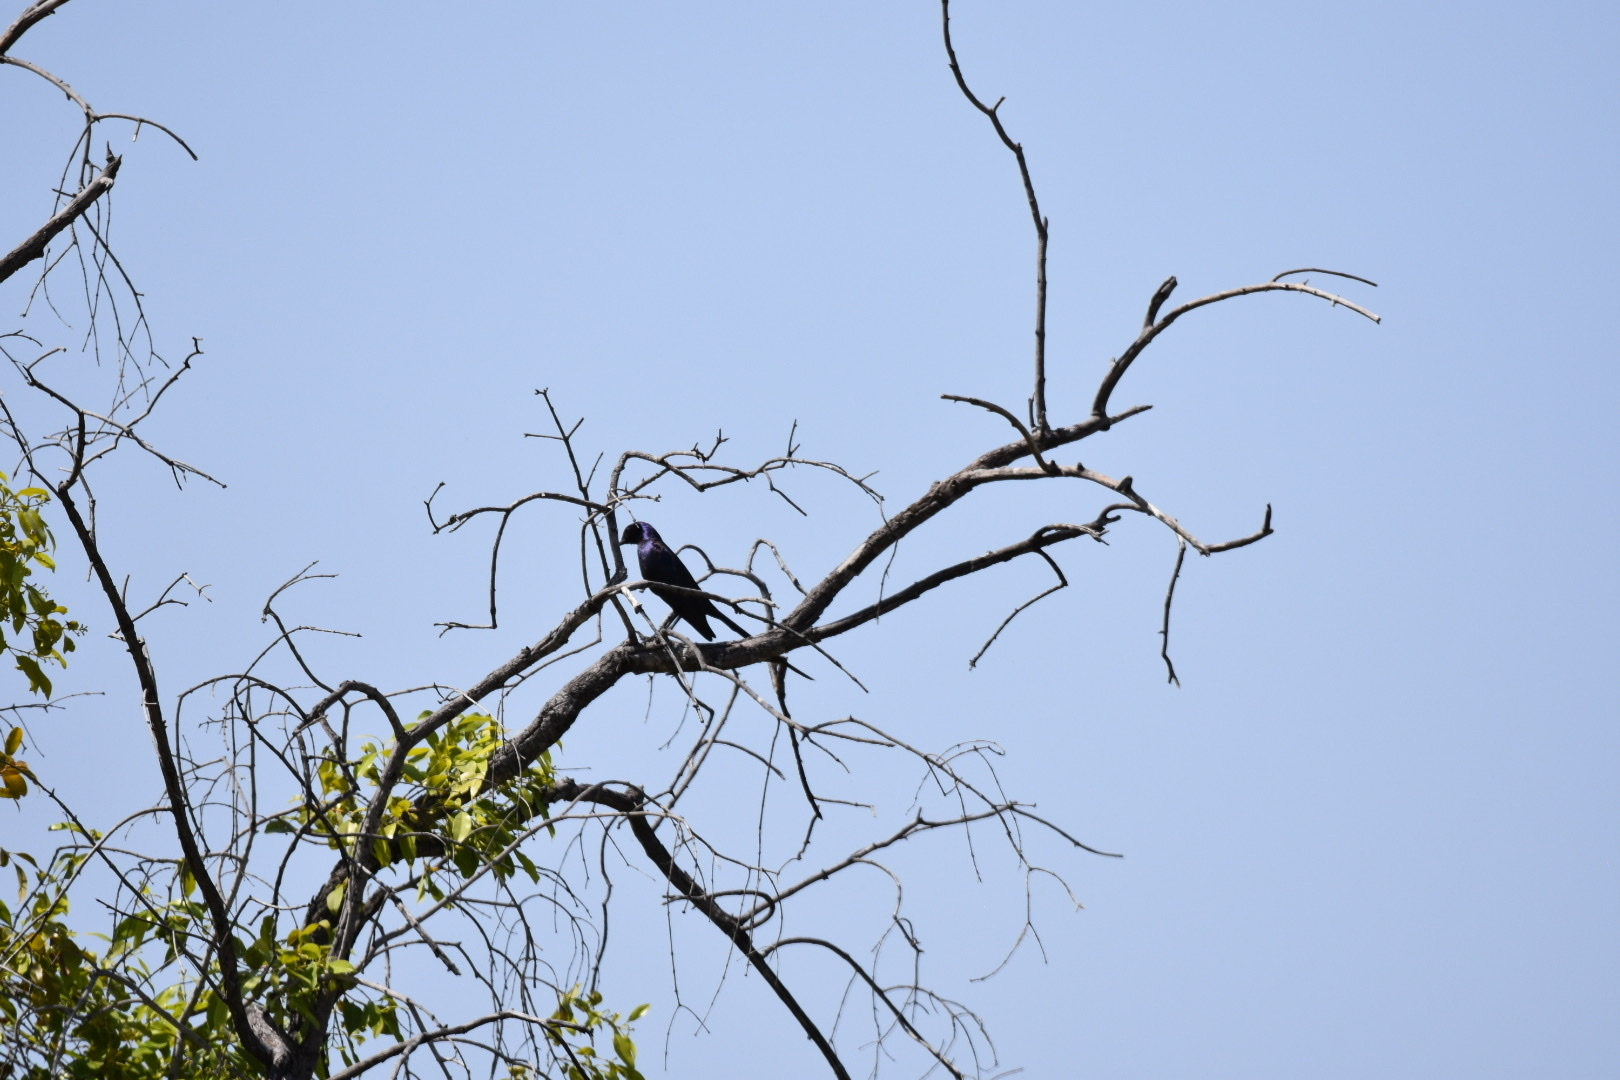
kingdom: Animalia
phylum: Chordata
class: Aves
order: Passeriformes
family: Sturnidae
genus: Lamprotornis
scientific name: Lamprotornis mevesii
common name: Meves's starling
